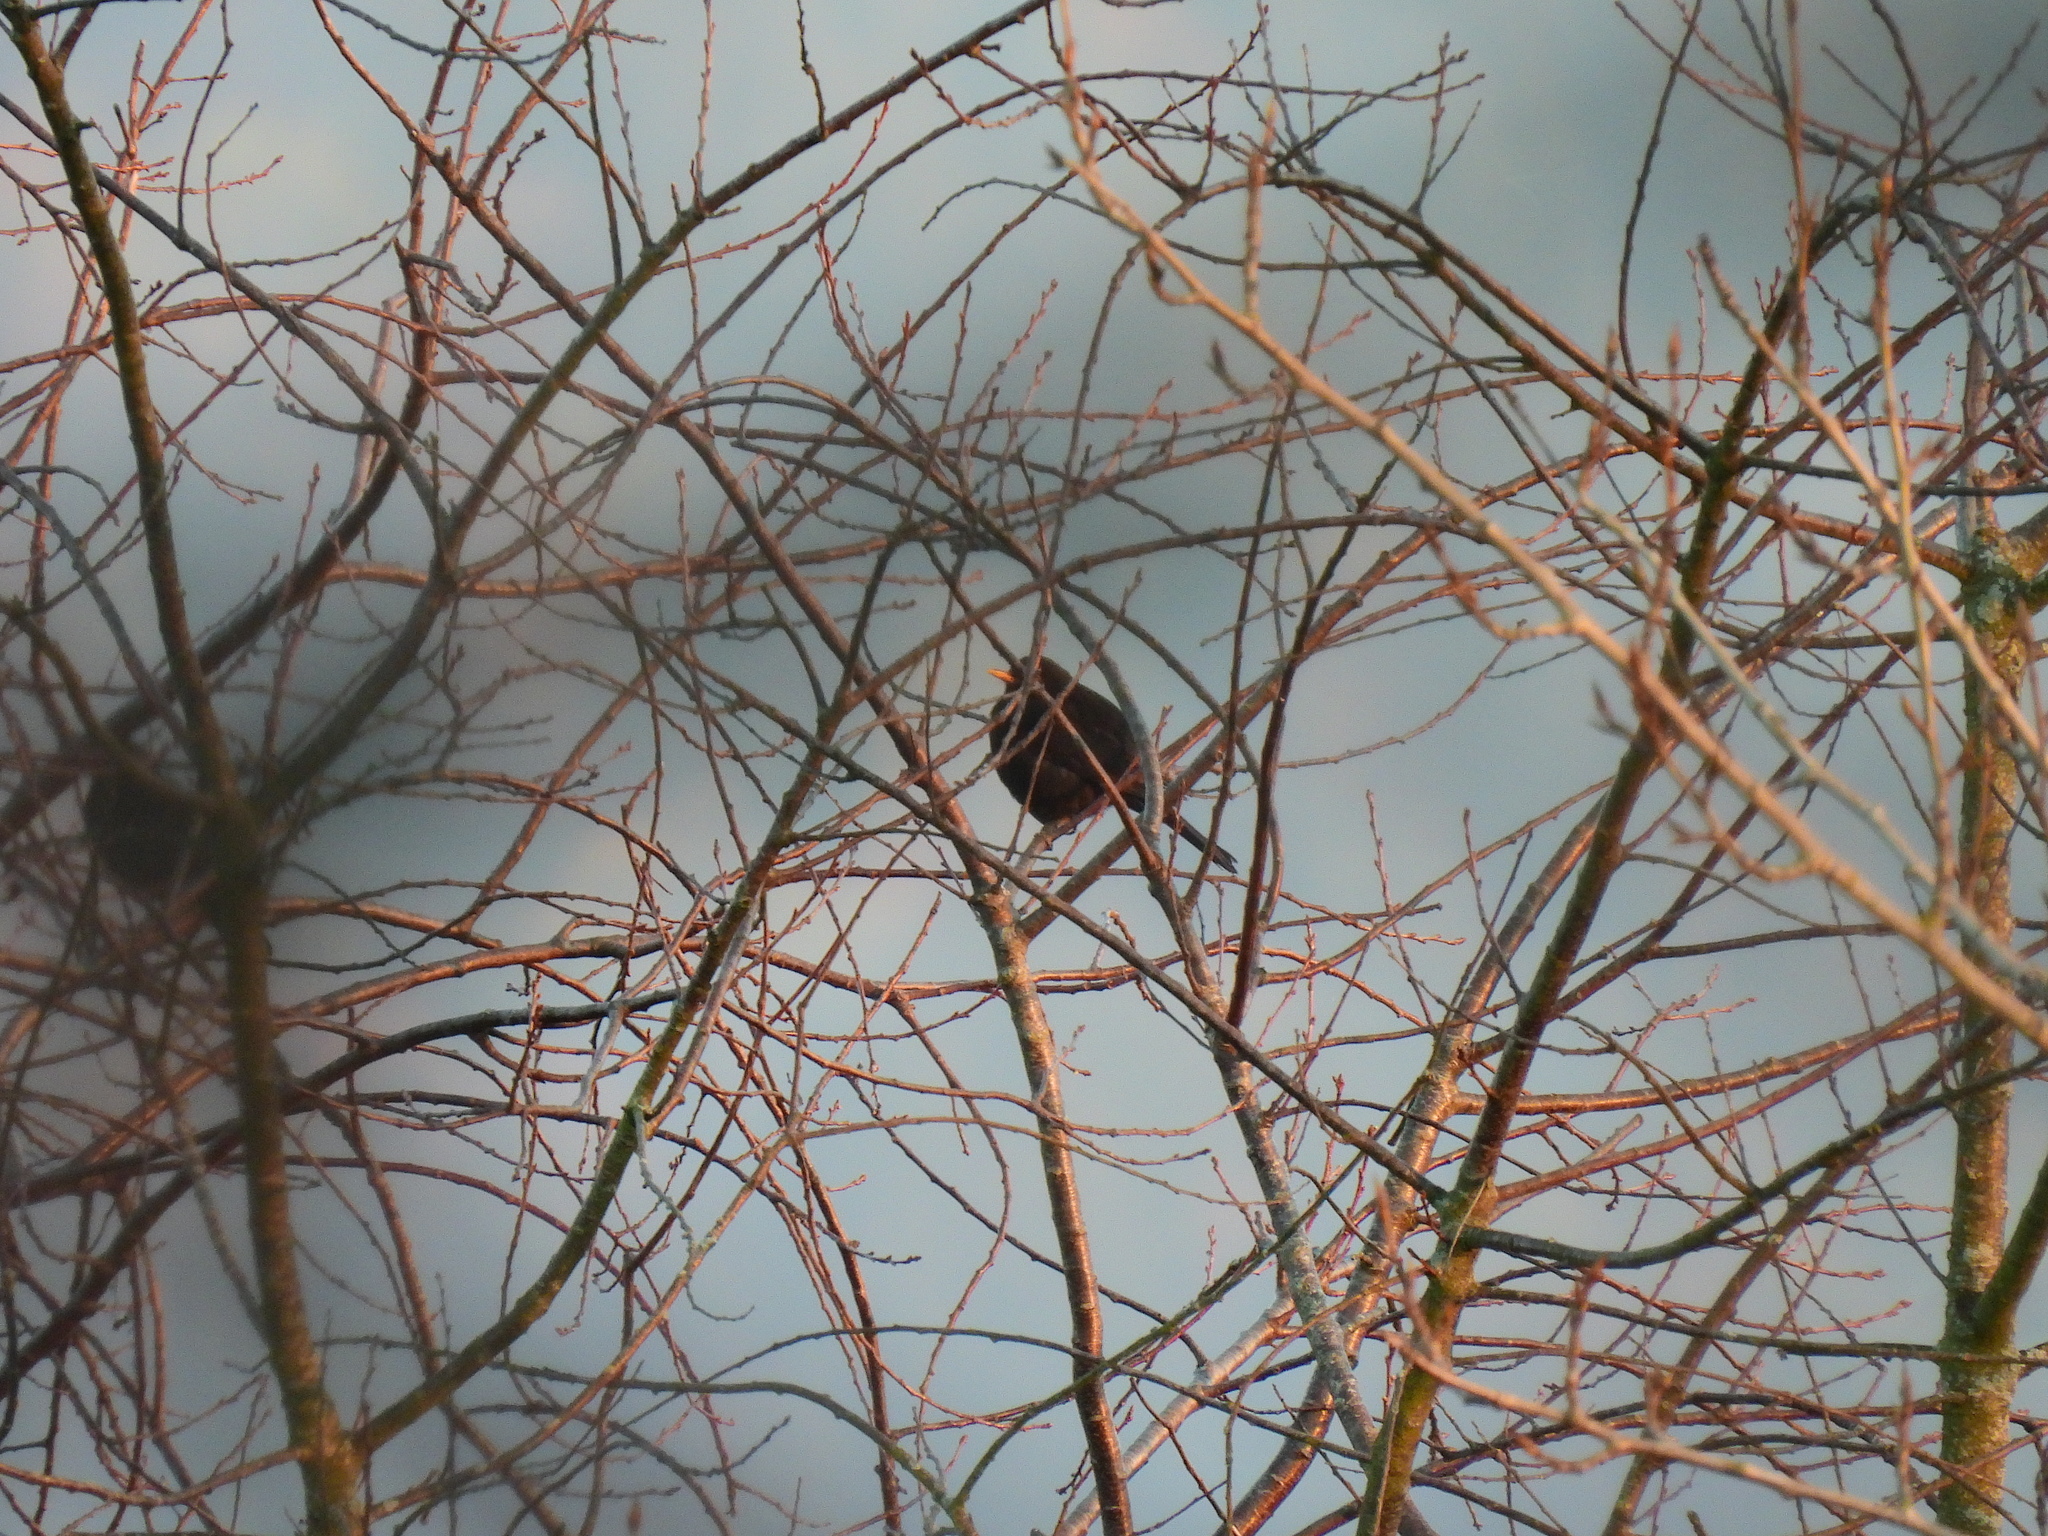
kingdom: Animalia
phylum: Chordata
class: Aves
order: Passeriformes
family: Turdidae
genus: Turdus
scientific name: Turdus merula
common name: Common blackbird
